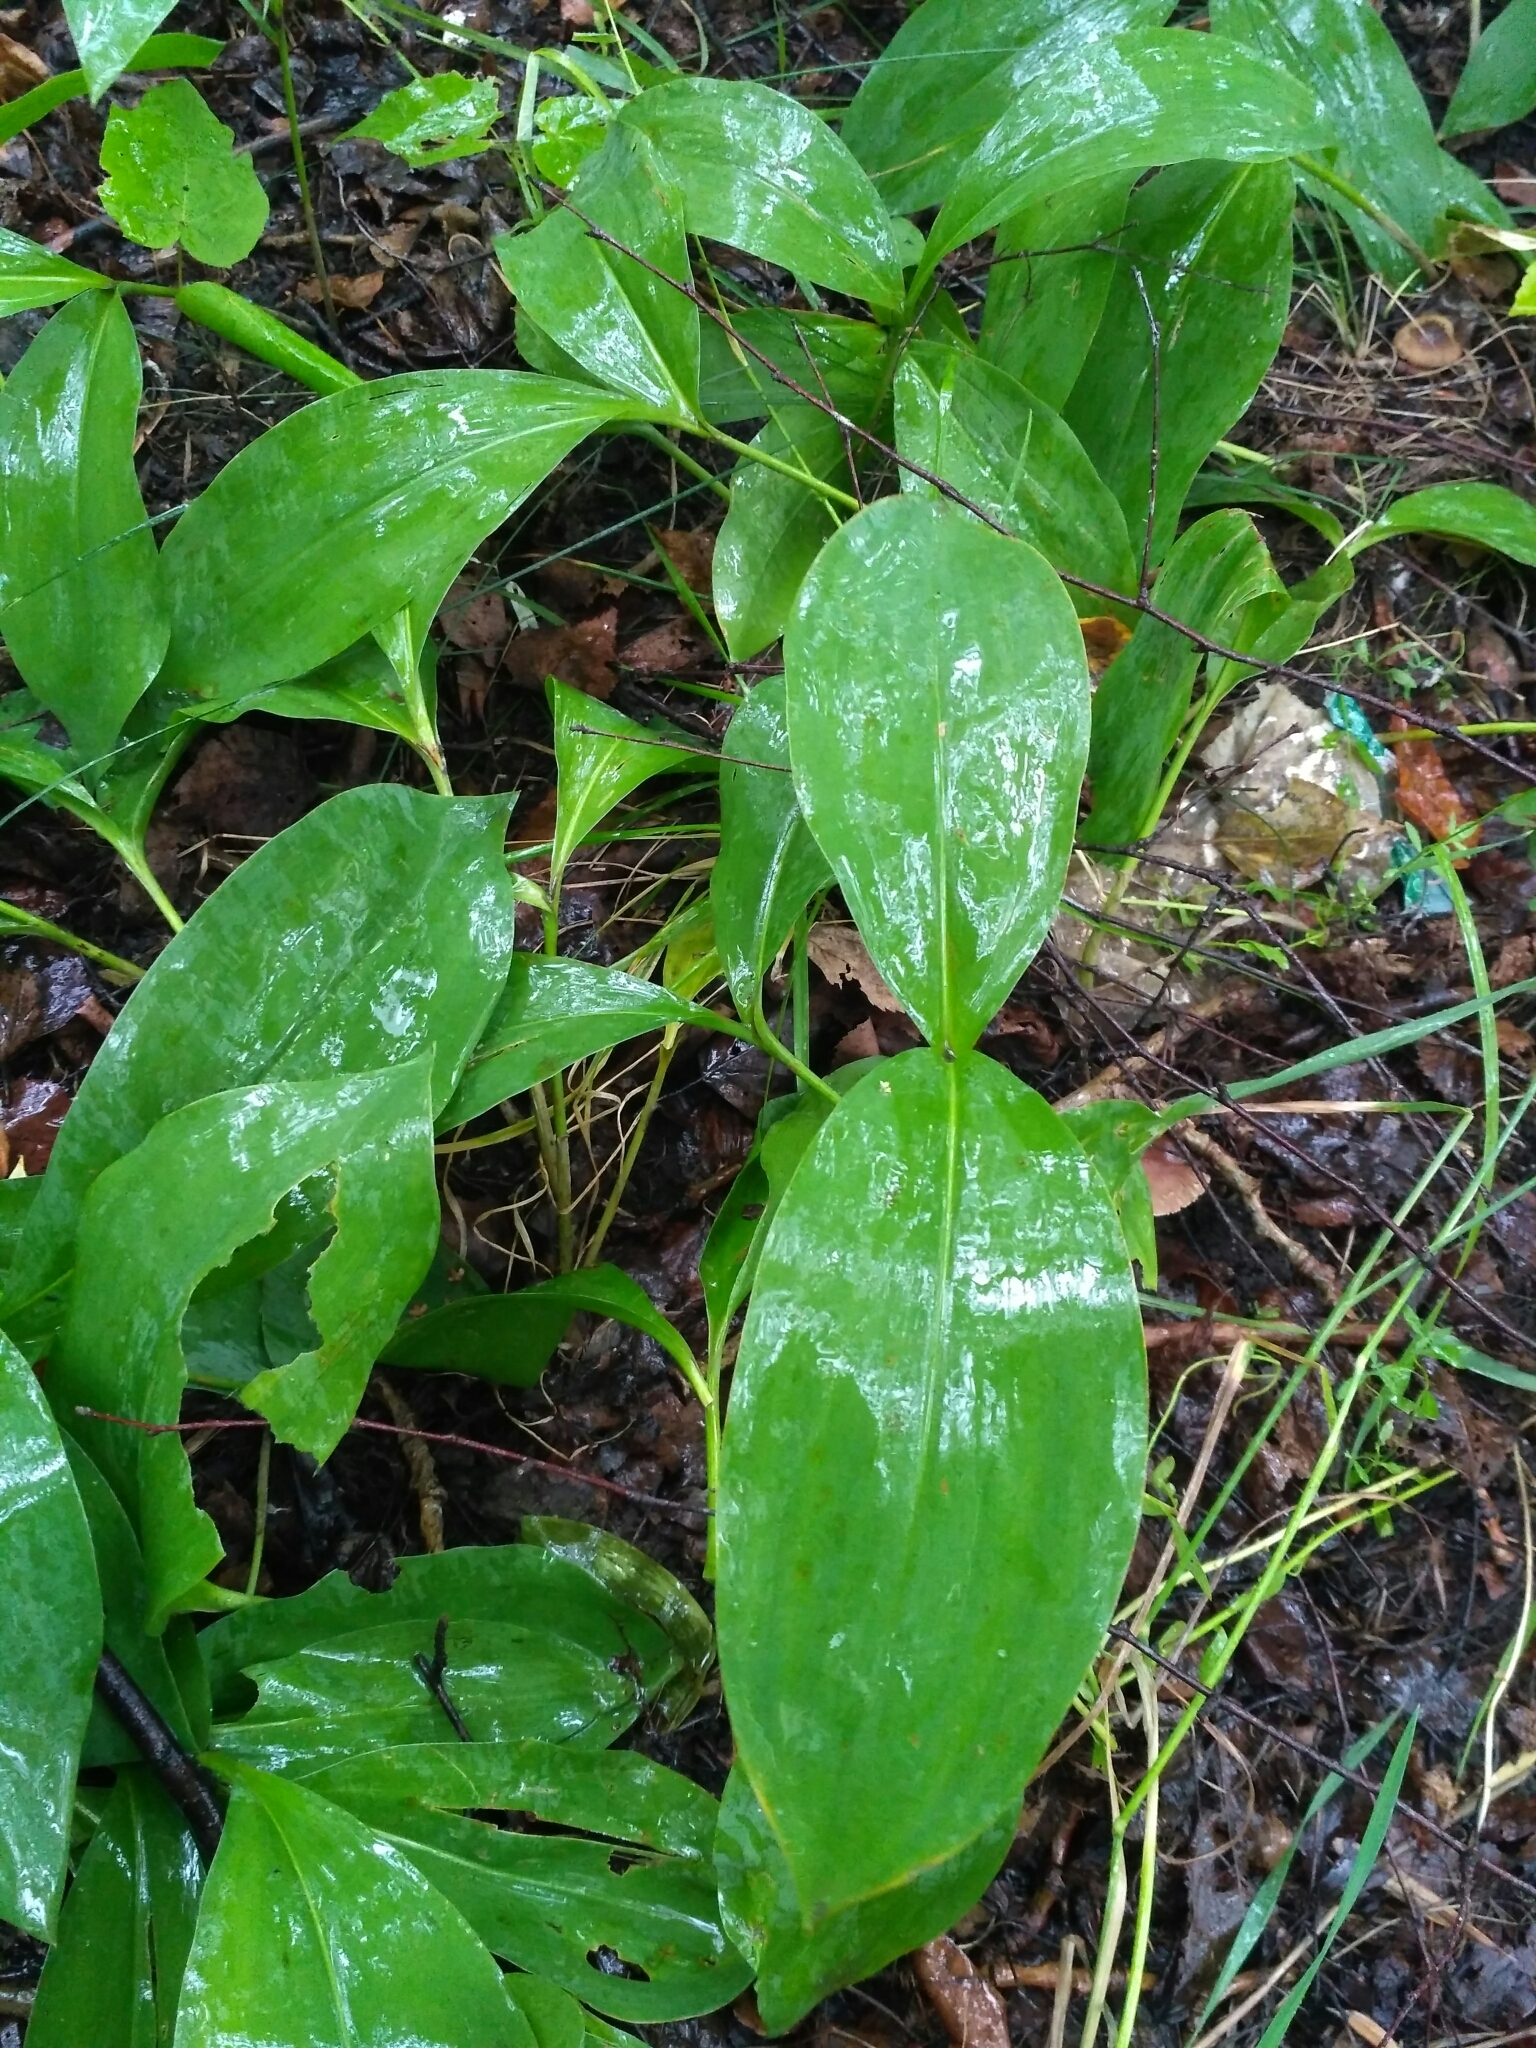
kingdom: Plantae
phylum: Tracheophyta
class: Liliopsida
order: Asparagales
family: Asparagaceae
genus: Convallaria
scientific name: Convallaria majalis
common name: Lily-of-the-valley
